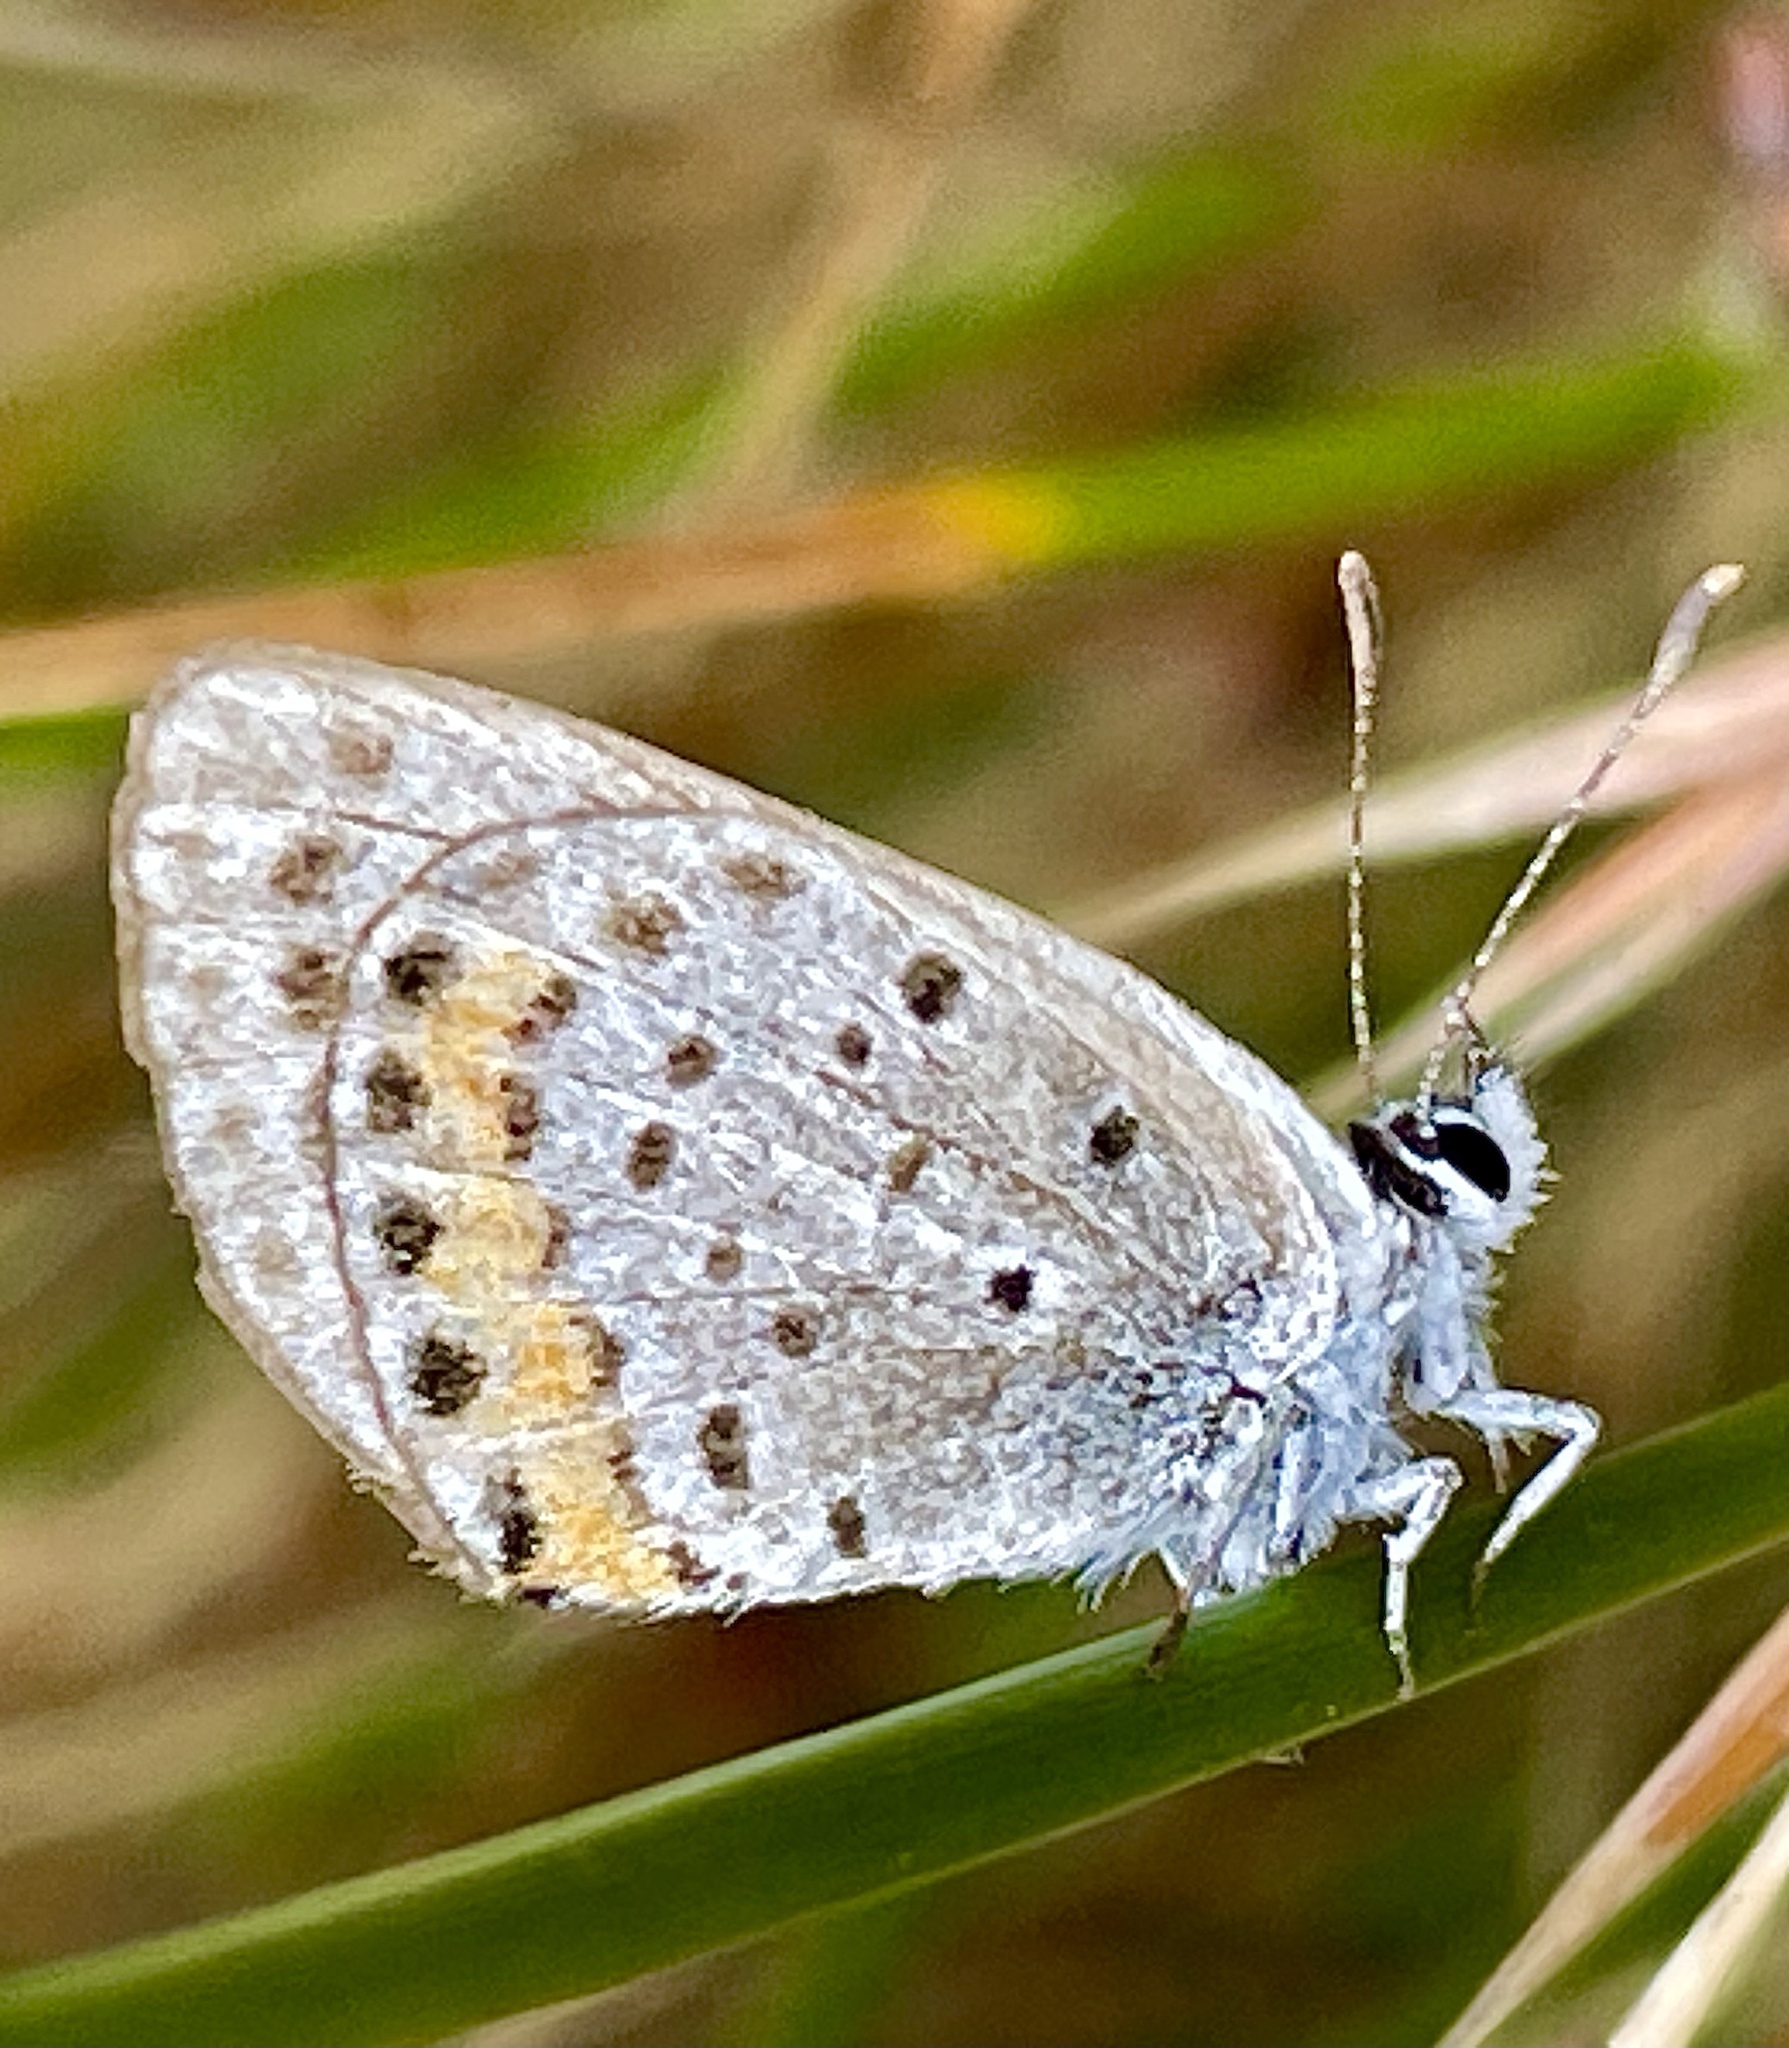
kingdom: Animalia
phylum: Arthropoda
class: Insecta
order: Lepidoptera
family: Lycaenidae
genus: Icaricia
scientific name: Icaricia acmon
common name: Acmon blue
